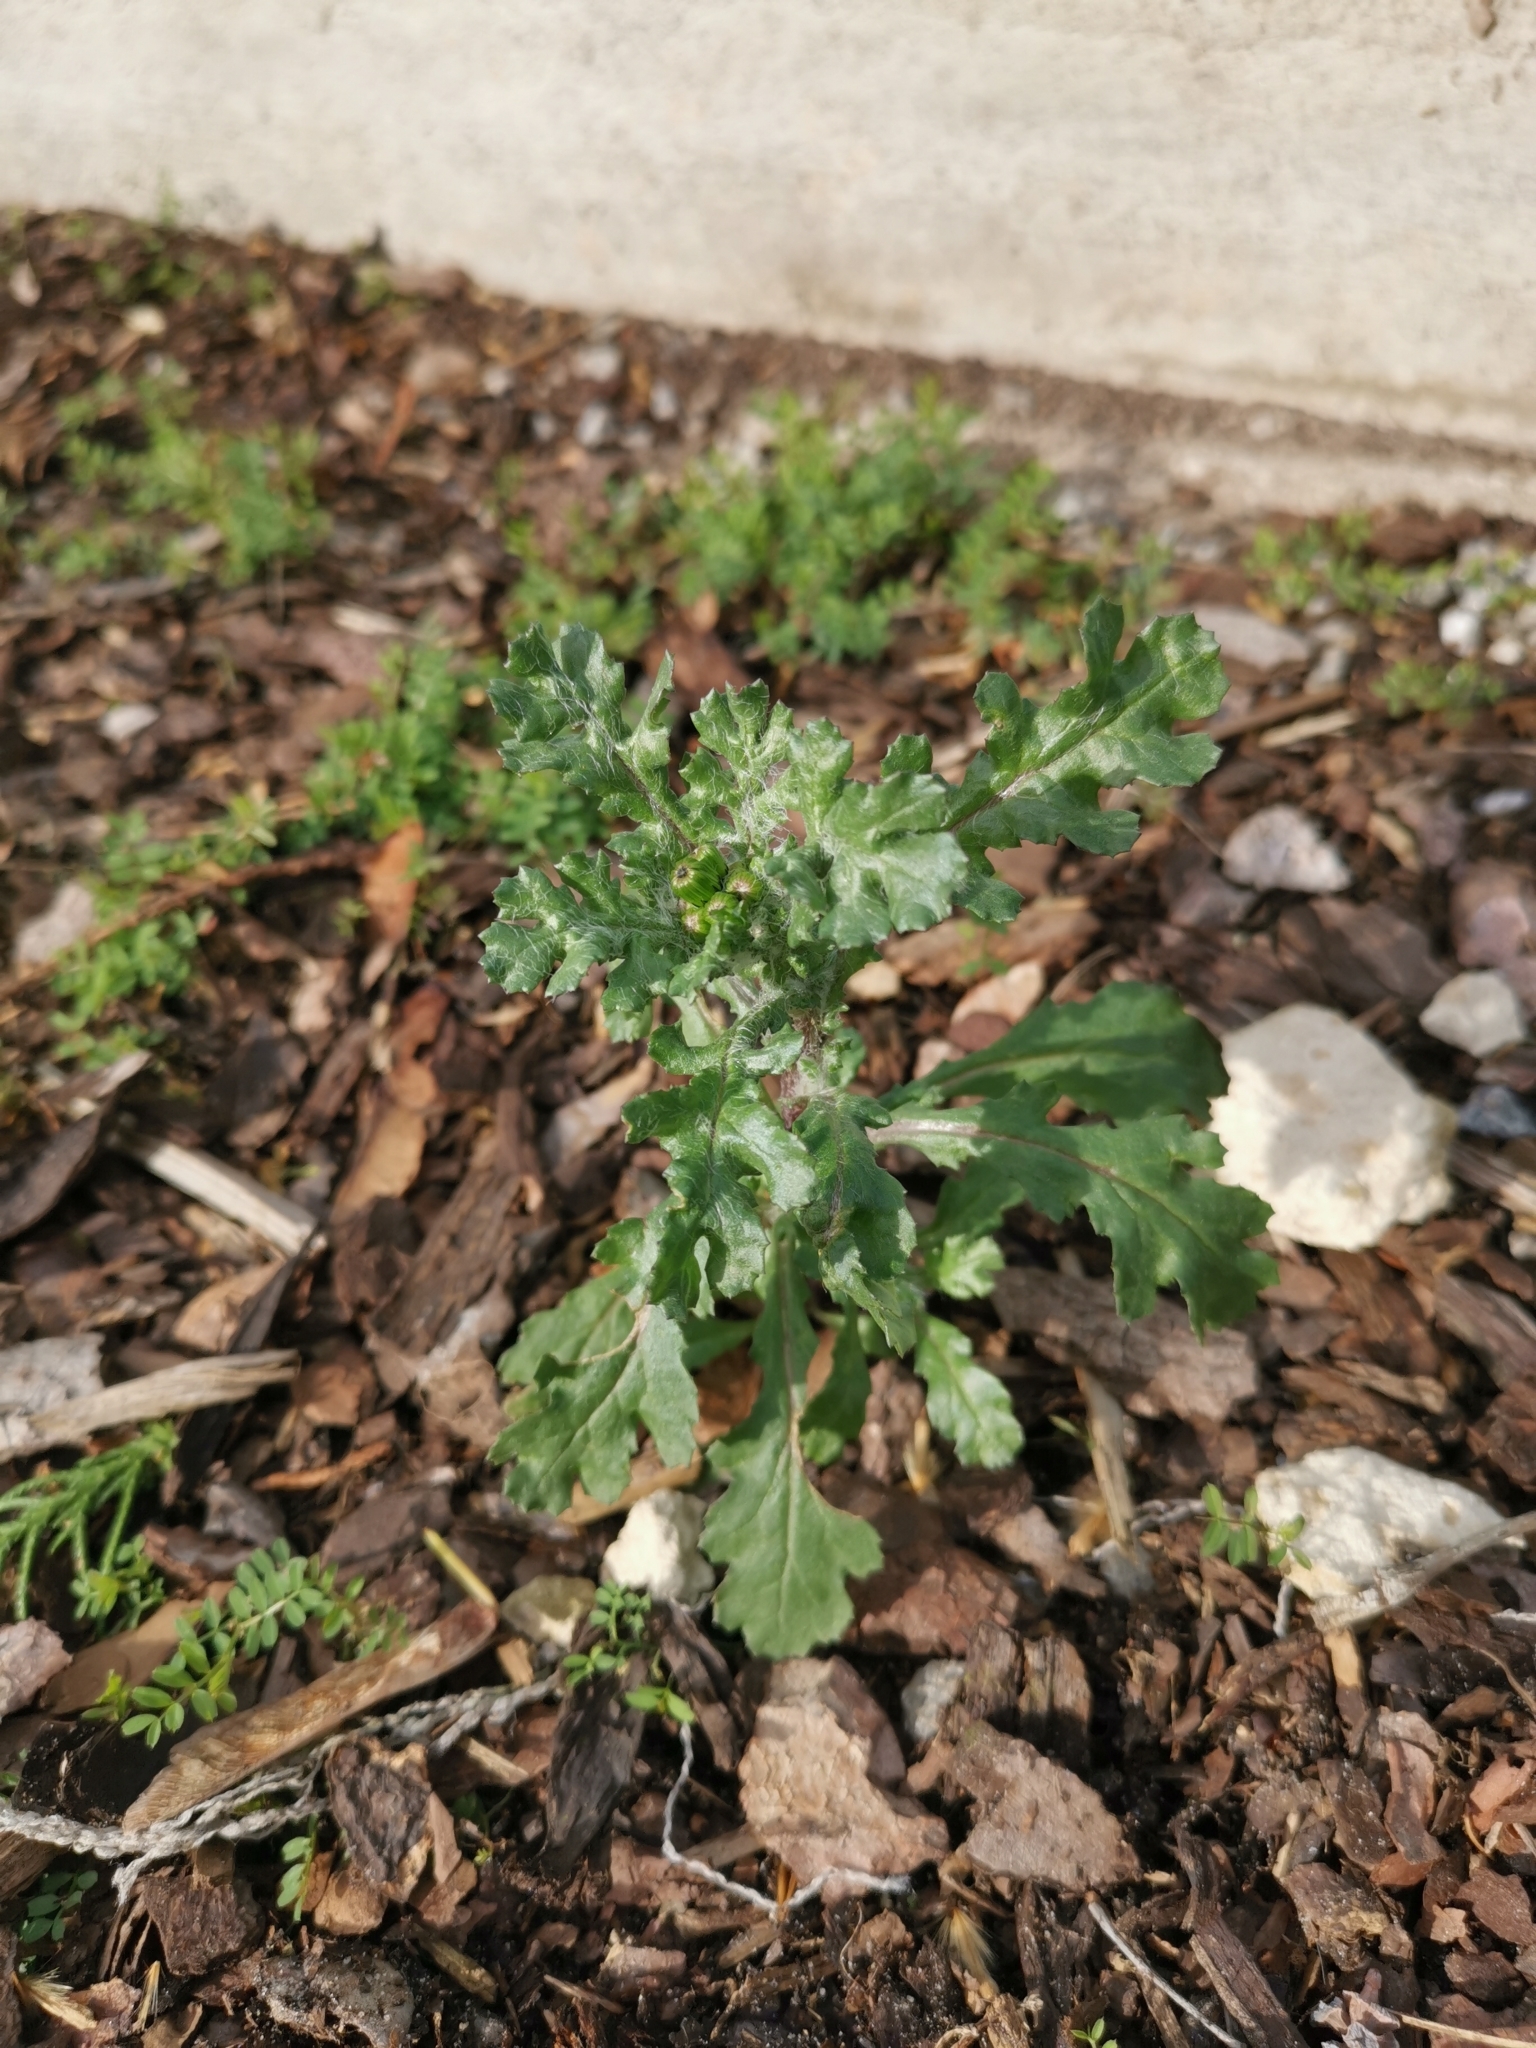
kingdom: Plantae
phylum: Tracheophyta
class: Magnoliopsida
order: Asterales
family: Asteraceae
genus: Senecio
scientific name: Senecio vulgaris
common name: Old-man-in-the-spring
